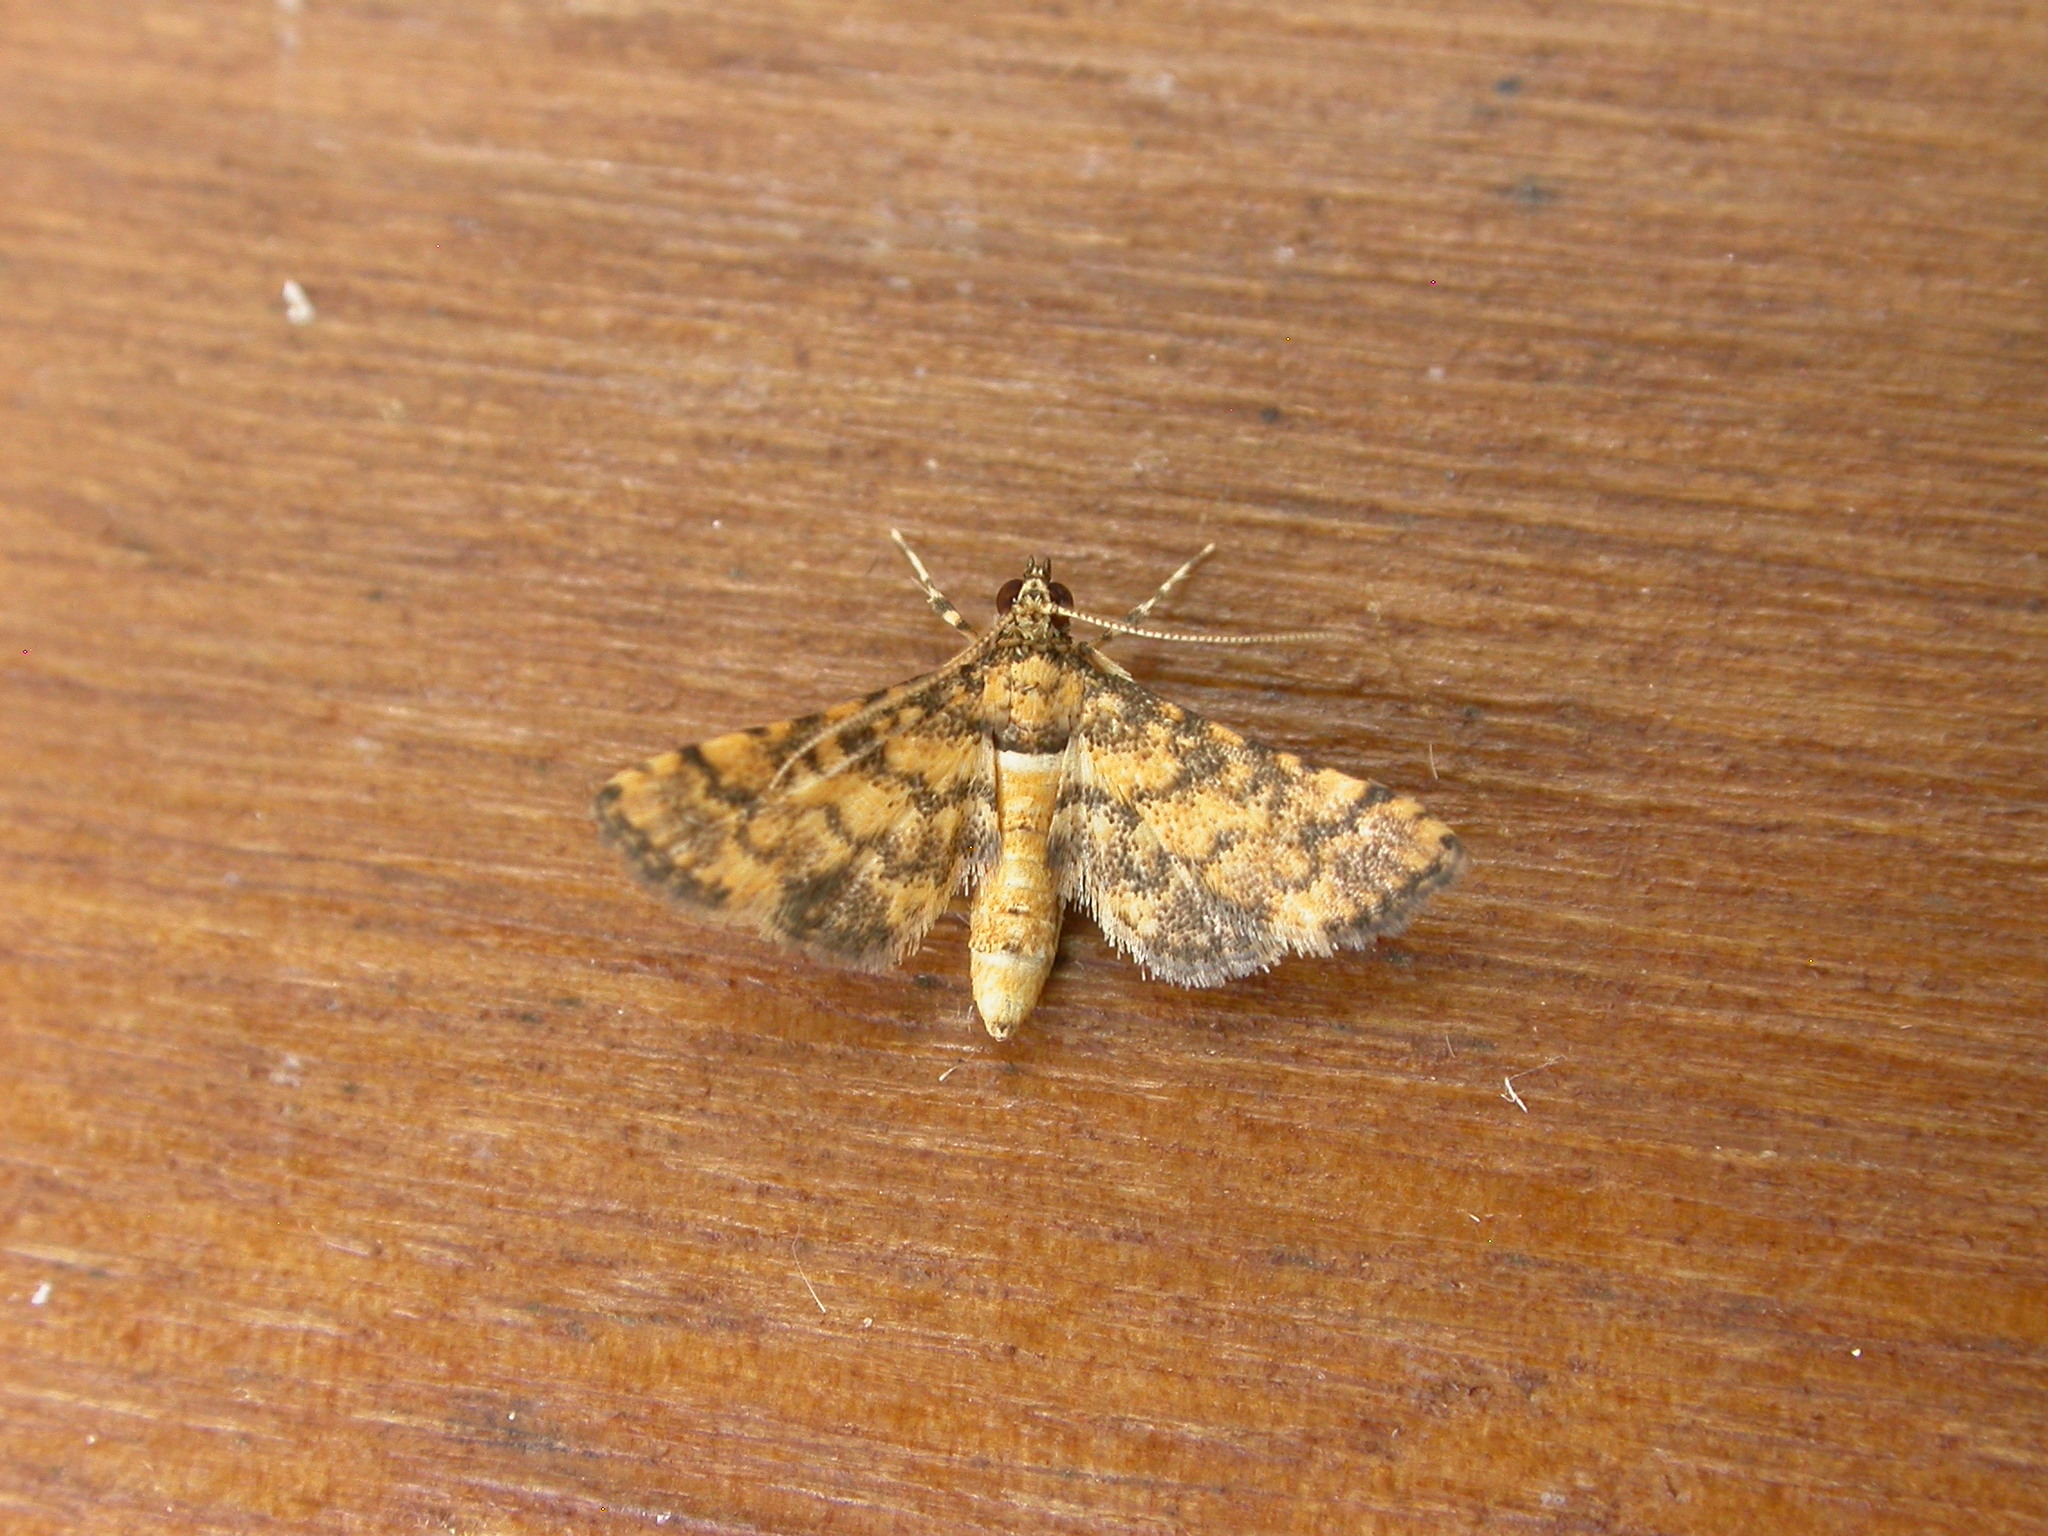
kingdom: Animalia
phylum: Arthropoda
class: Insecta
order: Lepidoptera
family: Crambidae
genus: Metasia
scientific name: Metasia tiasalis
